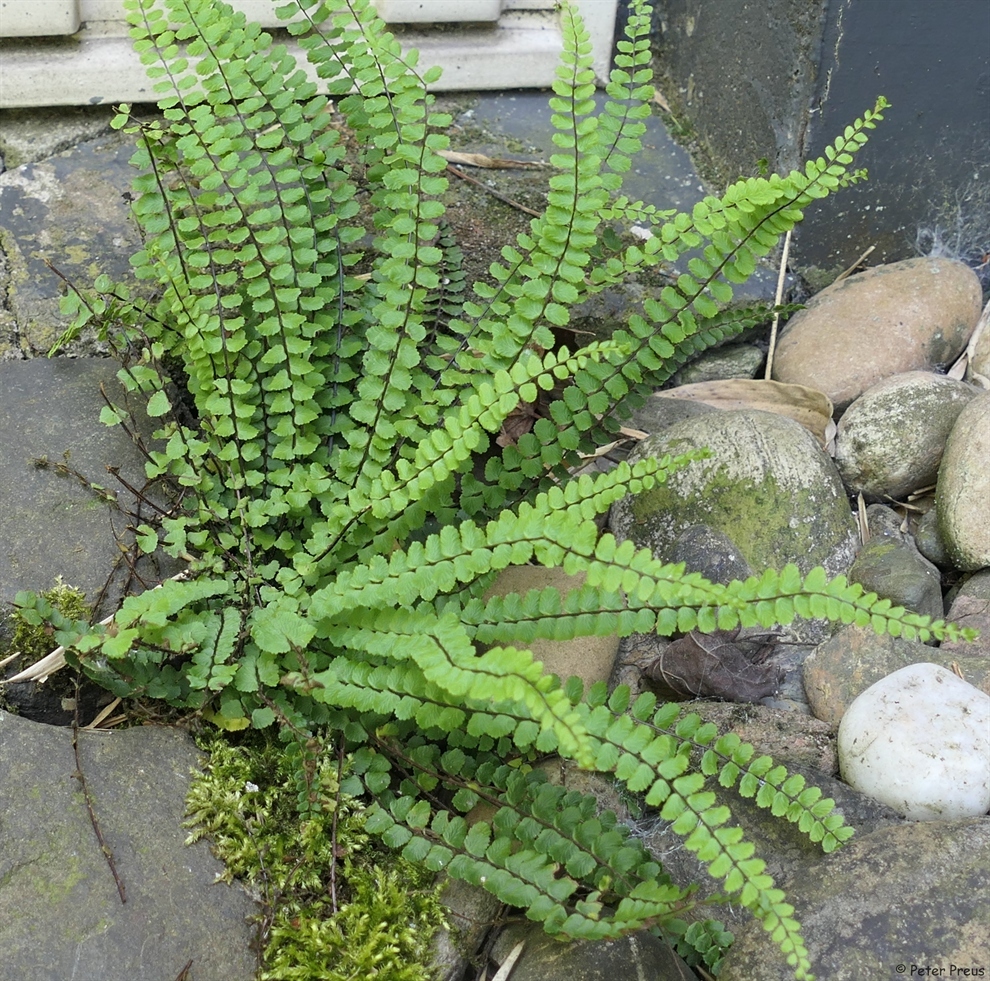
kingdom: Plantae
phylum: Tracheophyta
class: Polypodiopsida
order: Polypodiales
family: Aspleniaceae
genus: Asplenium
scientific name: Asplenium trichomanes
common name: Maidenhair spleenwort
